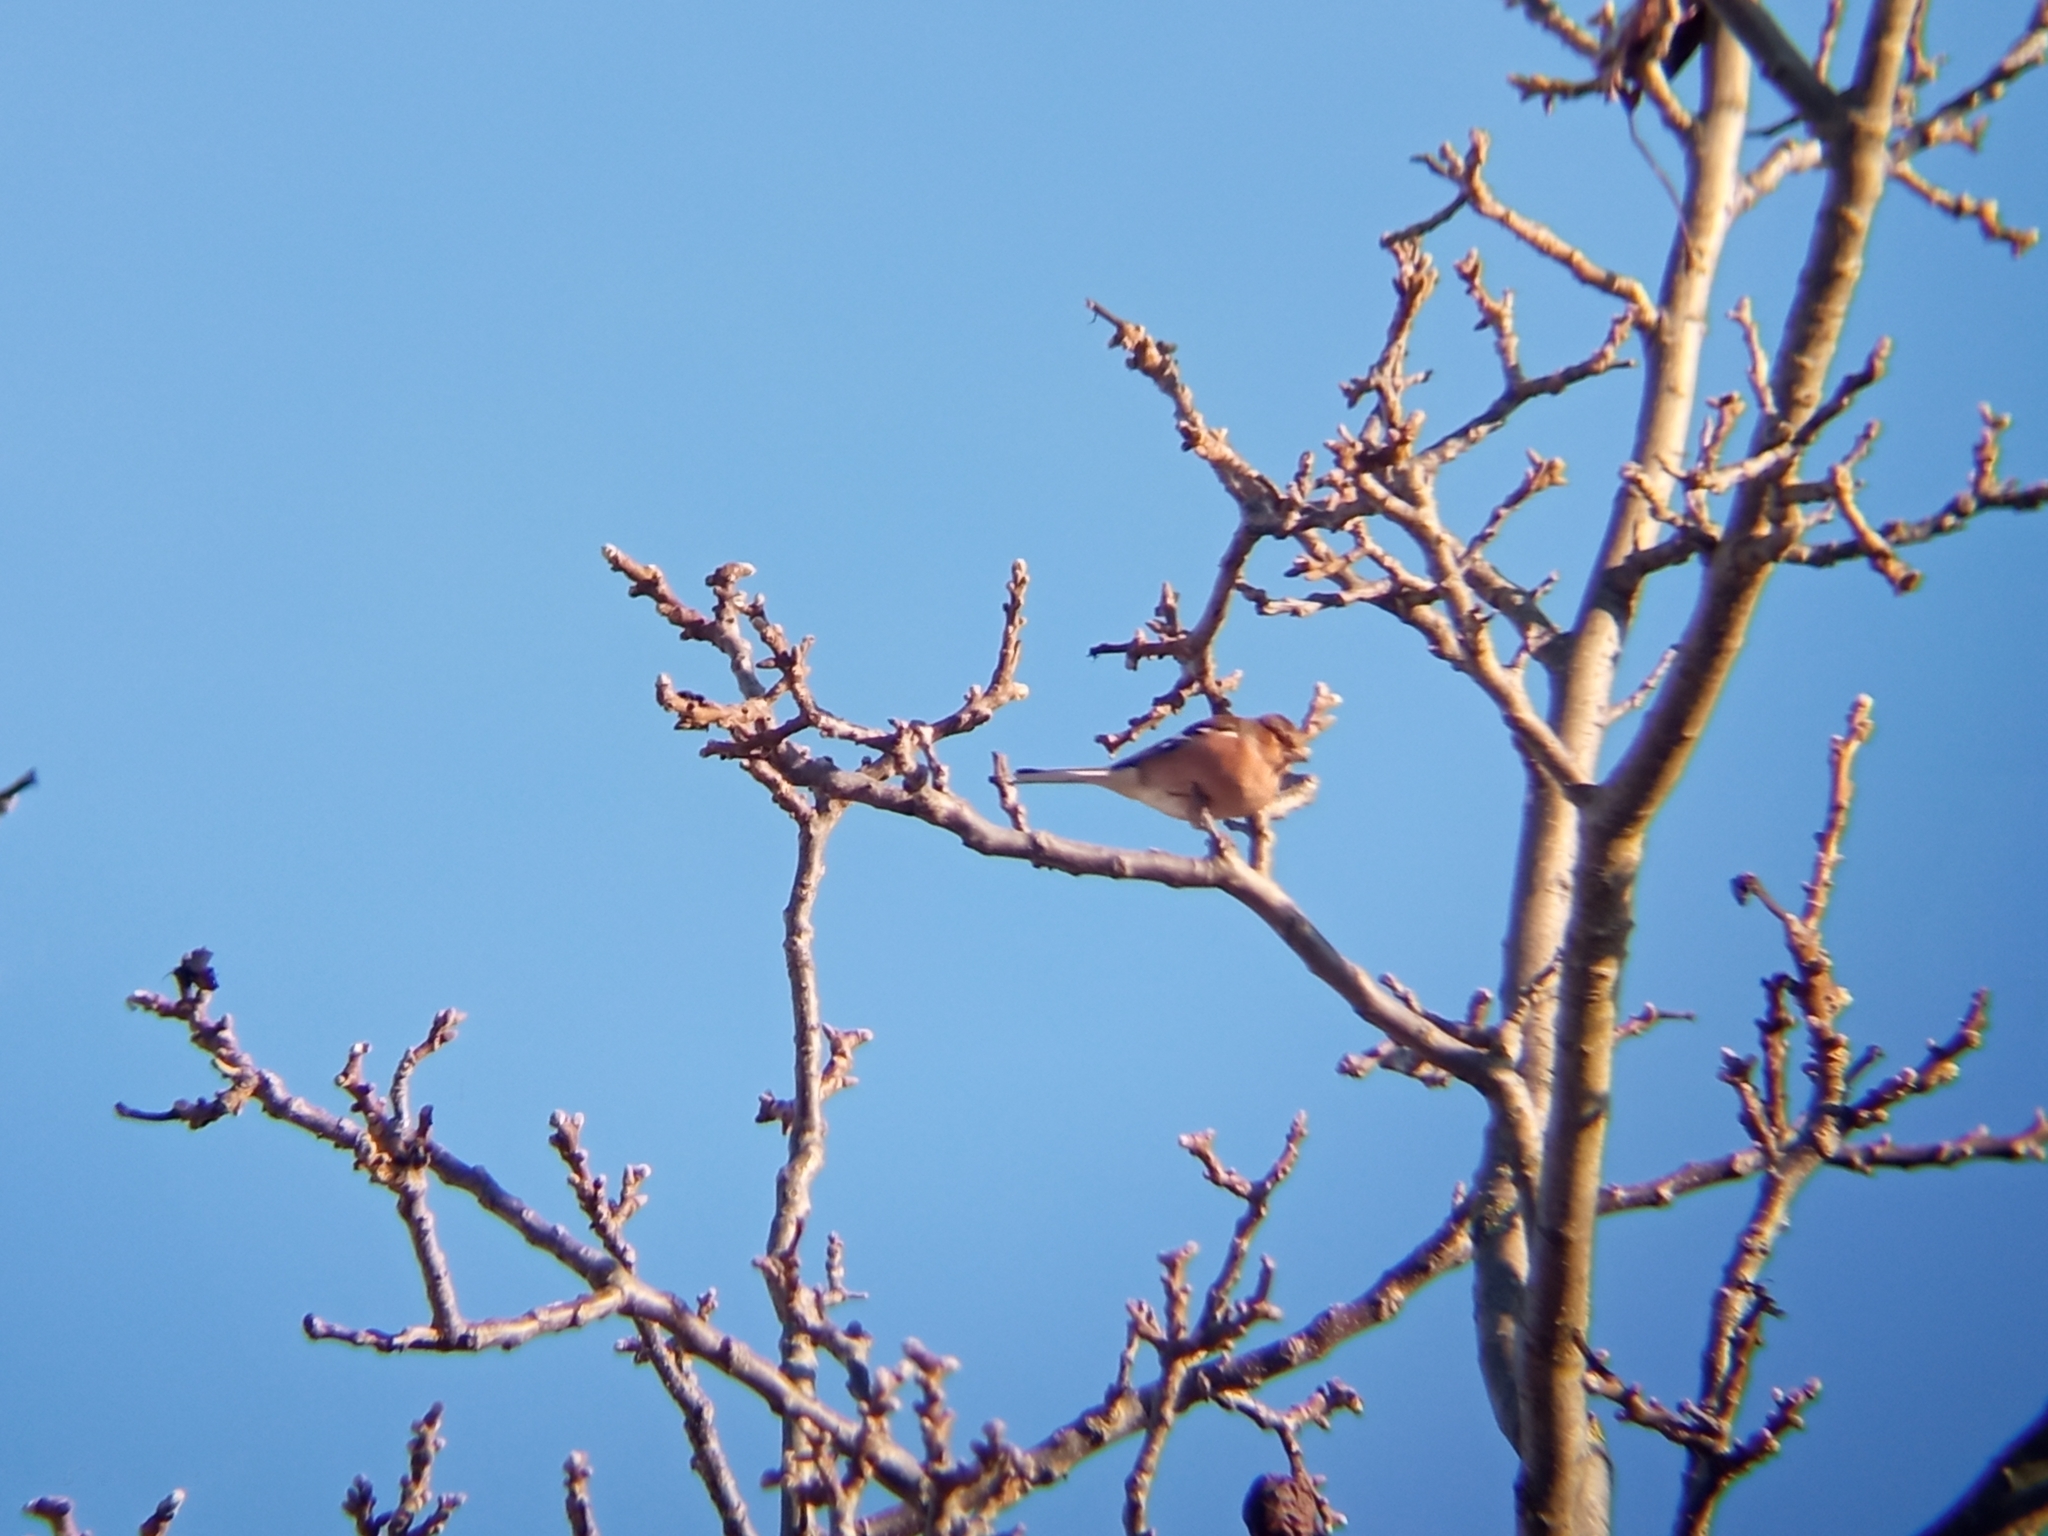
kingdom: Animalia
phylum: Chordata
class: Aves
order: Passeriformes
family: Fringillidae
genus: Fringilla
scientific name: Fringilla coelebs
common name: Common chaffinch
